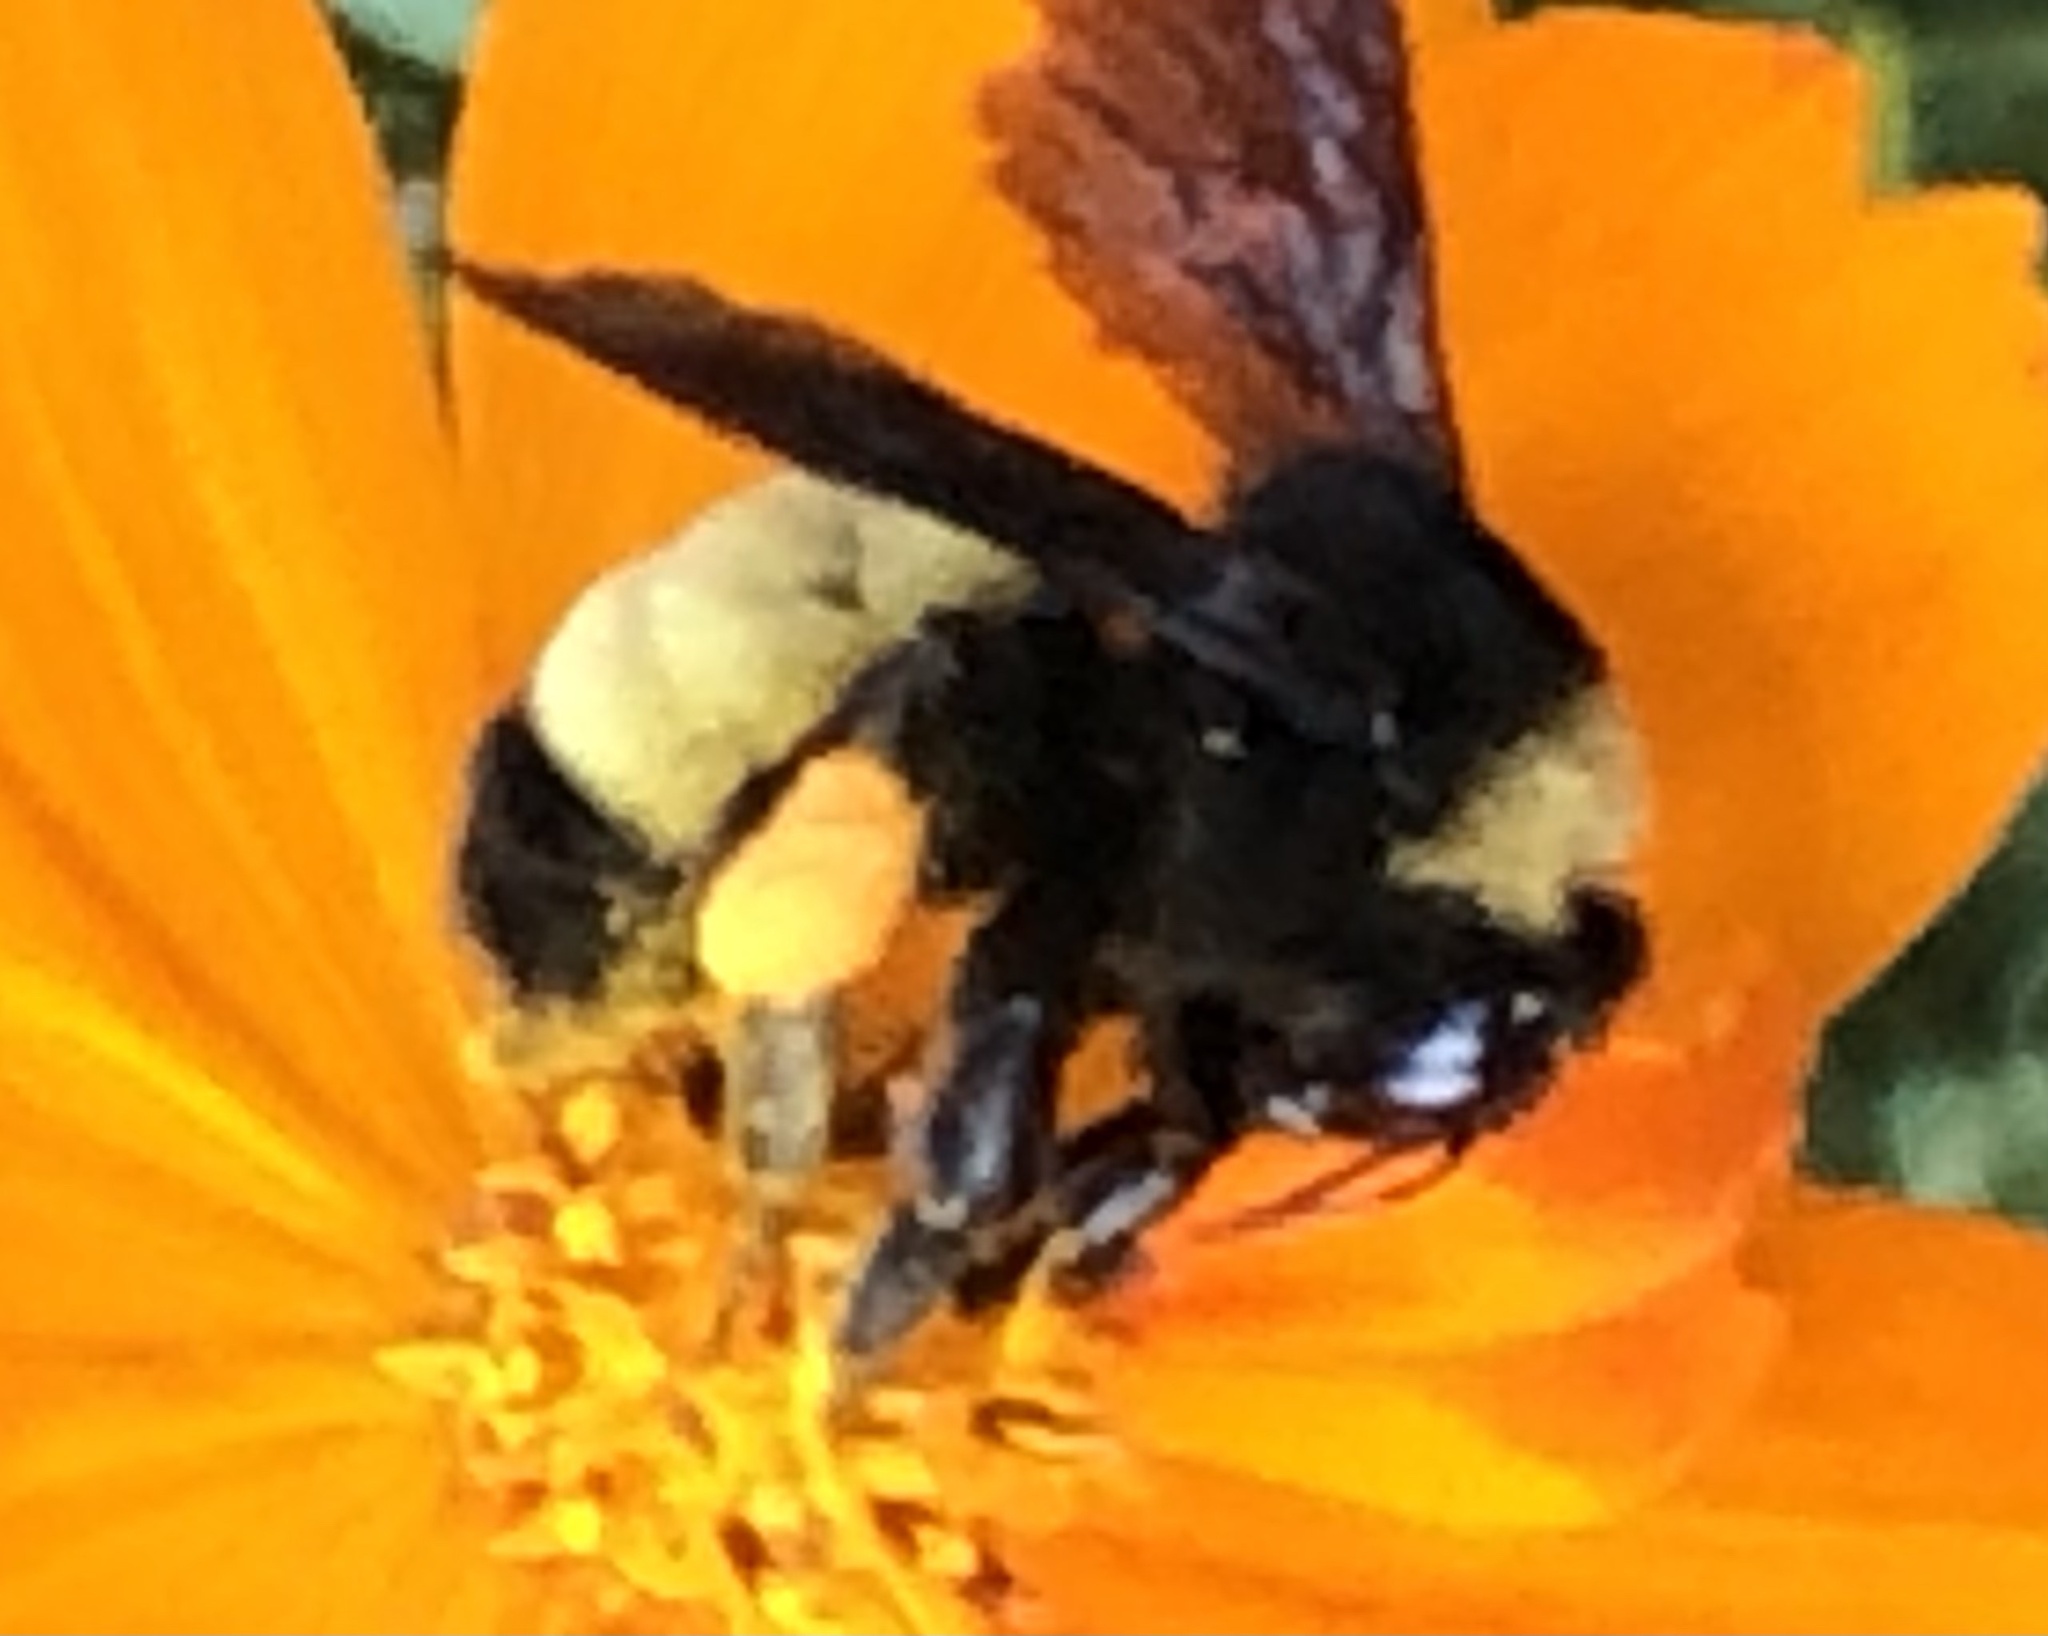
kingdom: Animalia
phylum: Arthropoda
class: Insecta
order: Hymenoptera
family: Apidae
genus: Bombus
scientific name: Bombus pensylvanicus
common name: Bumble bee
